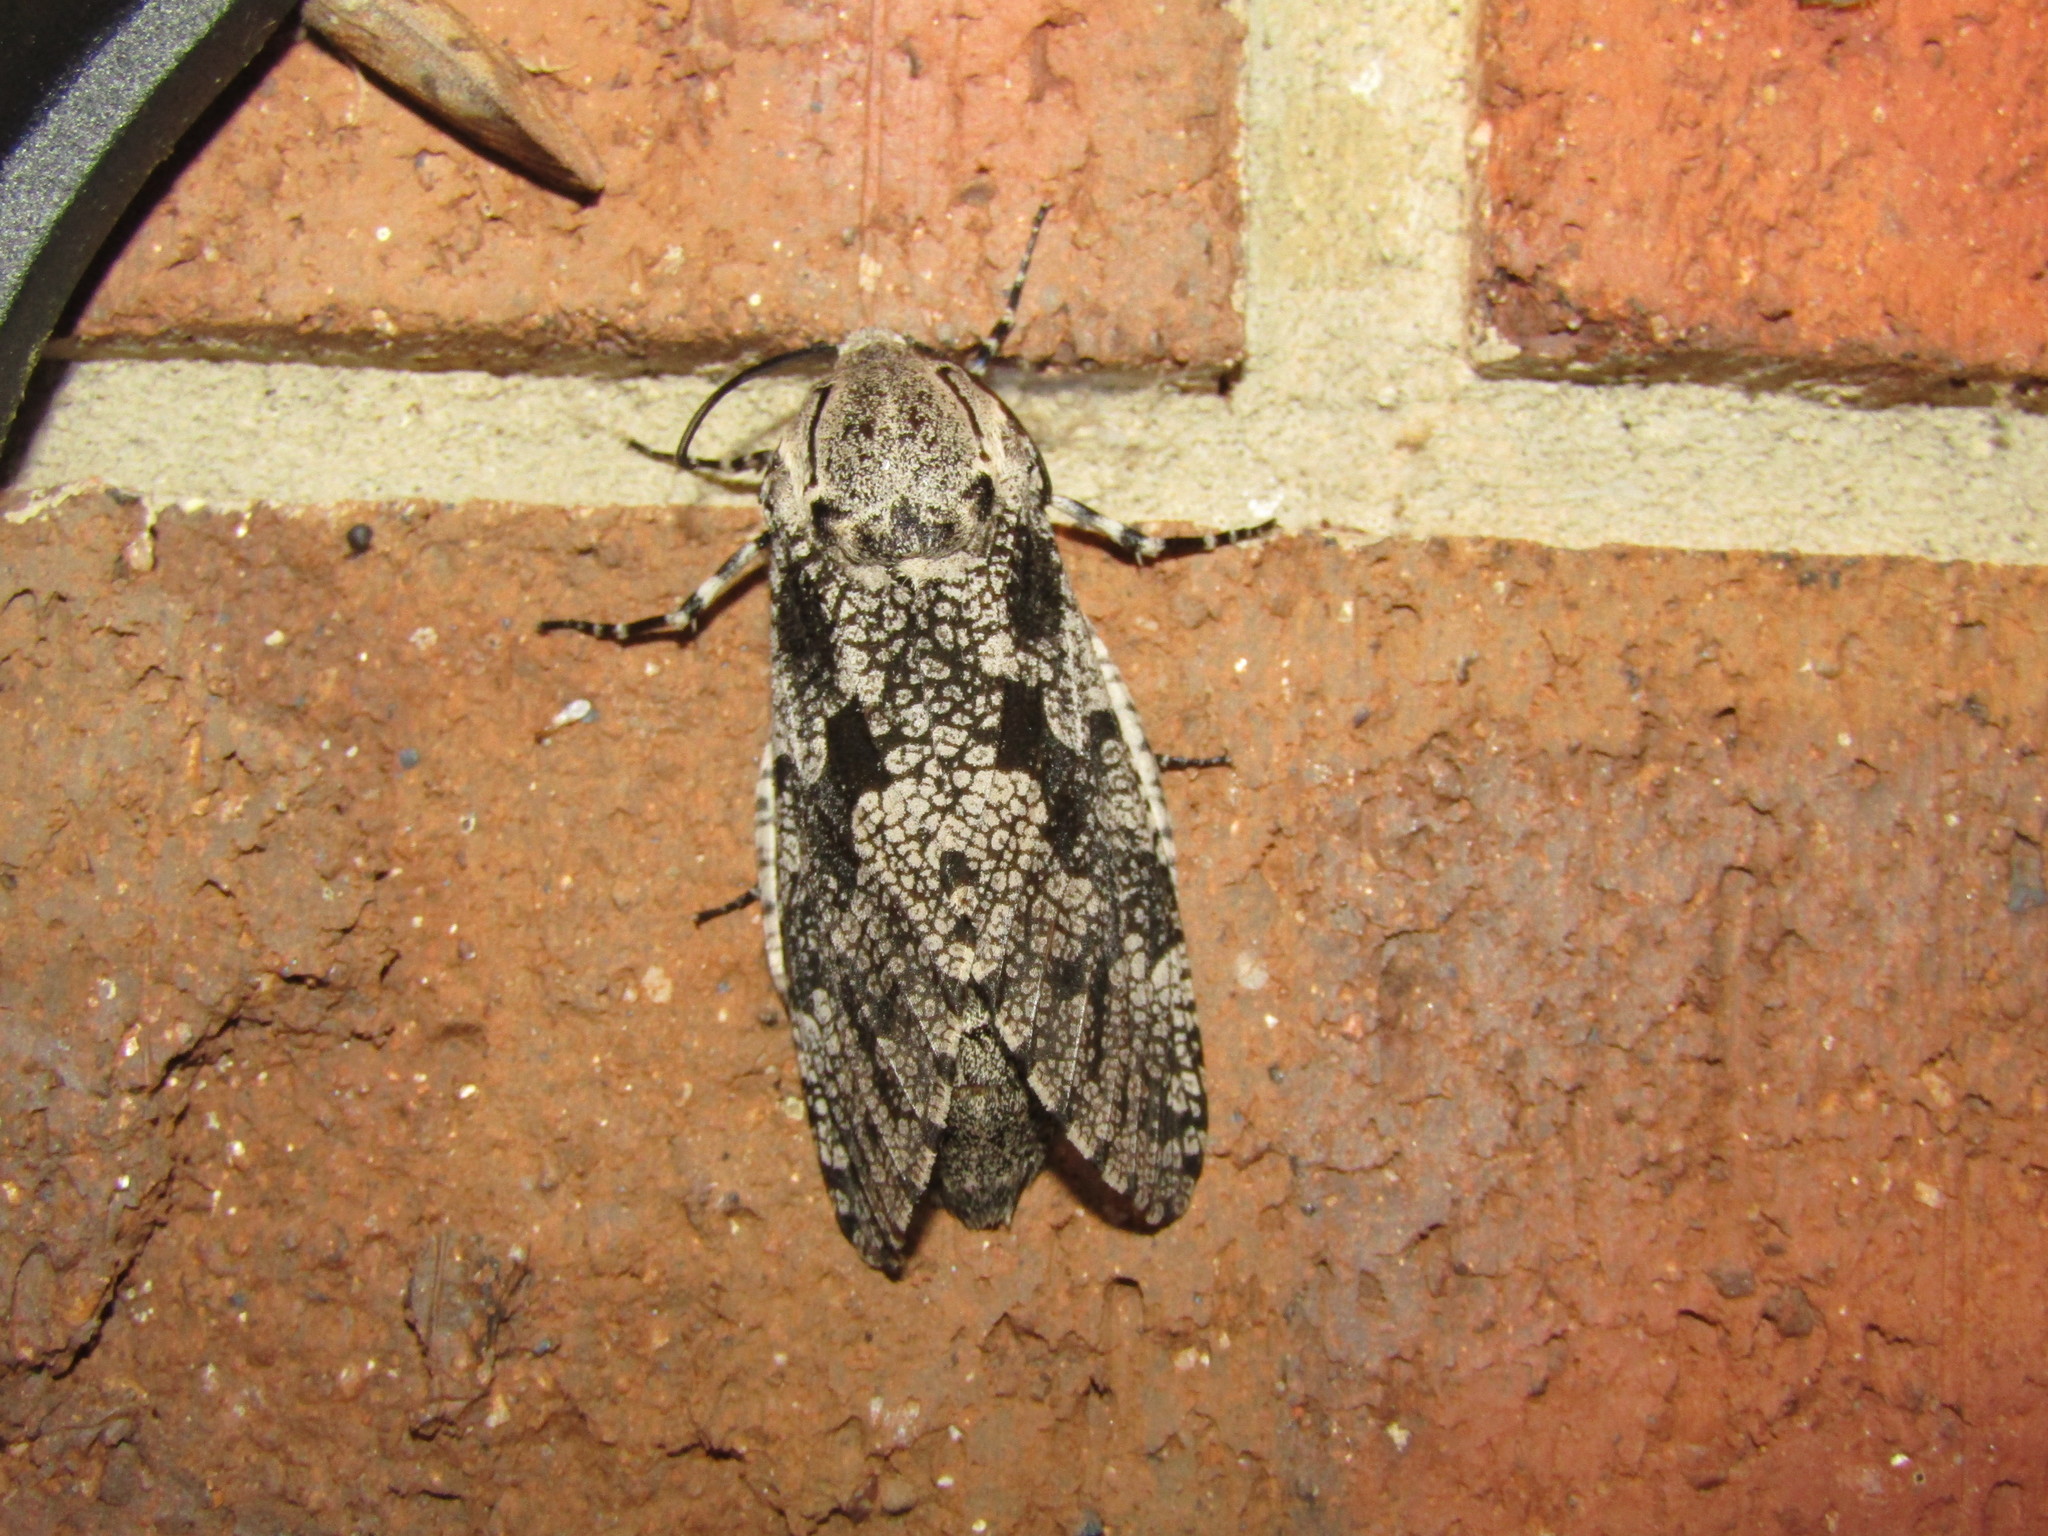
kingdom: Animalia
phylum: Arthropoda
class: Insecta
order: Lepidoptera
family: Cossidae
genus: Prionoxystus
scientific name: Prionoxystus robiniae
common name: Carpenterworm
